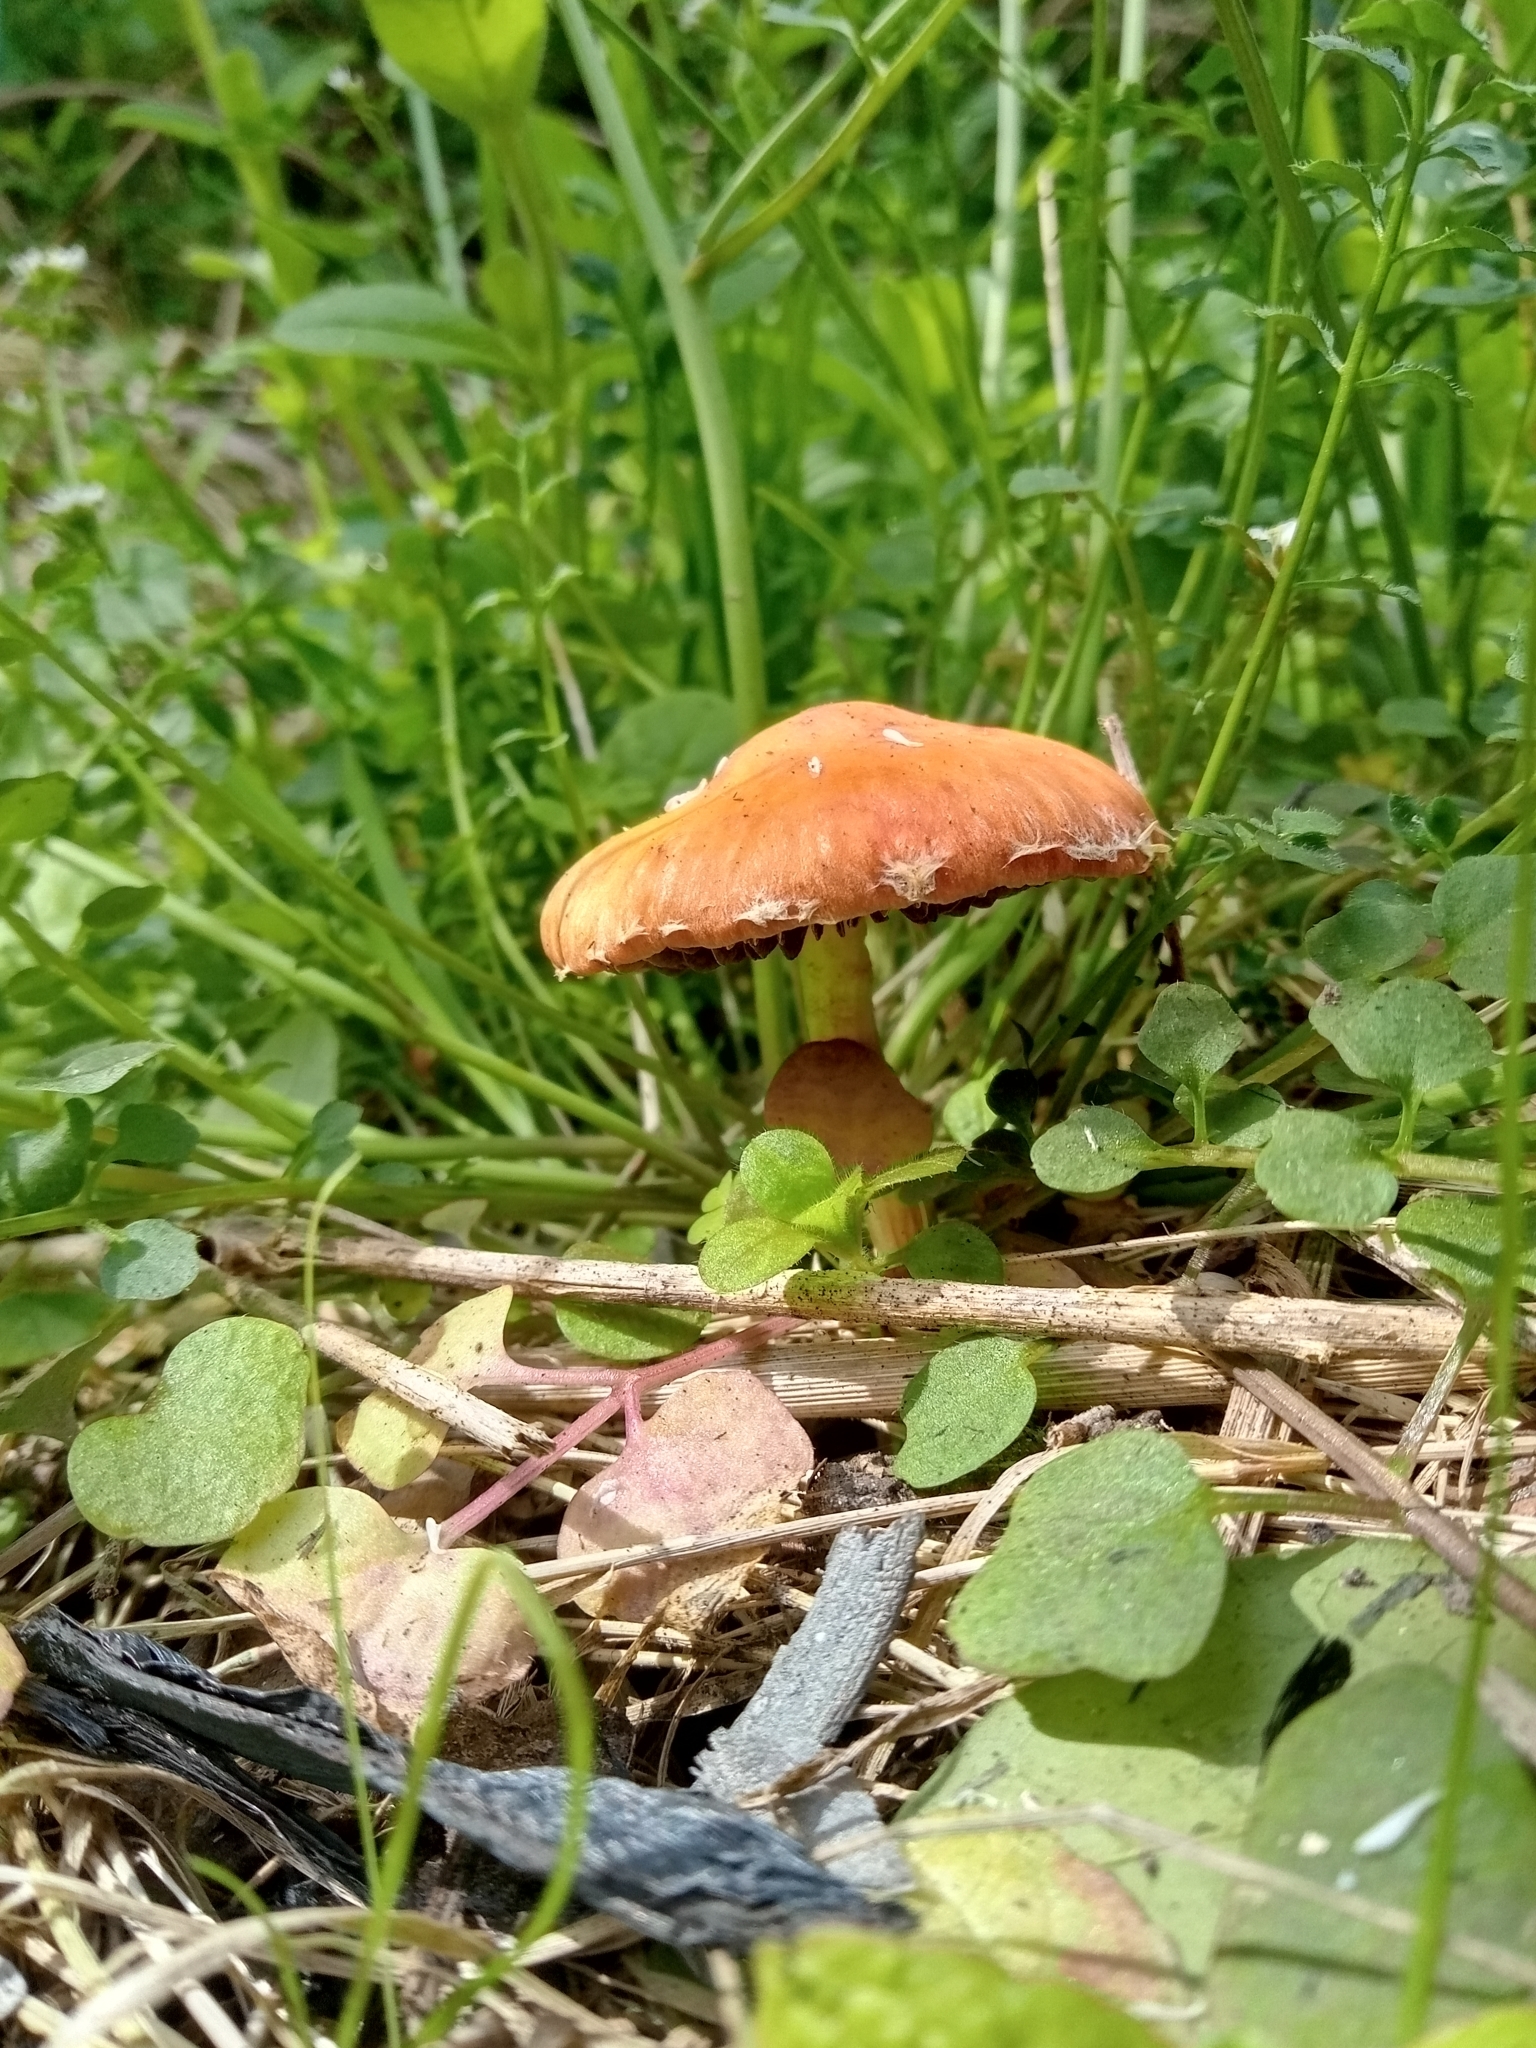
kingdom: Fungi
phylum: Basidiomycota
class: Agaricomycetes
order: Agaricales
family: Strophariaceae
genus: Leratiomyces
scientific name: Leratiomyces ceres
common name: Redlead roundhead
